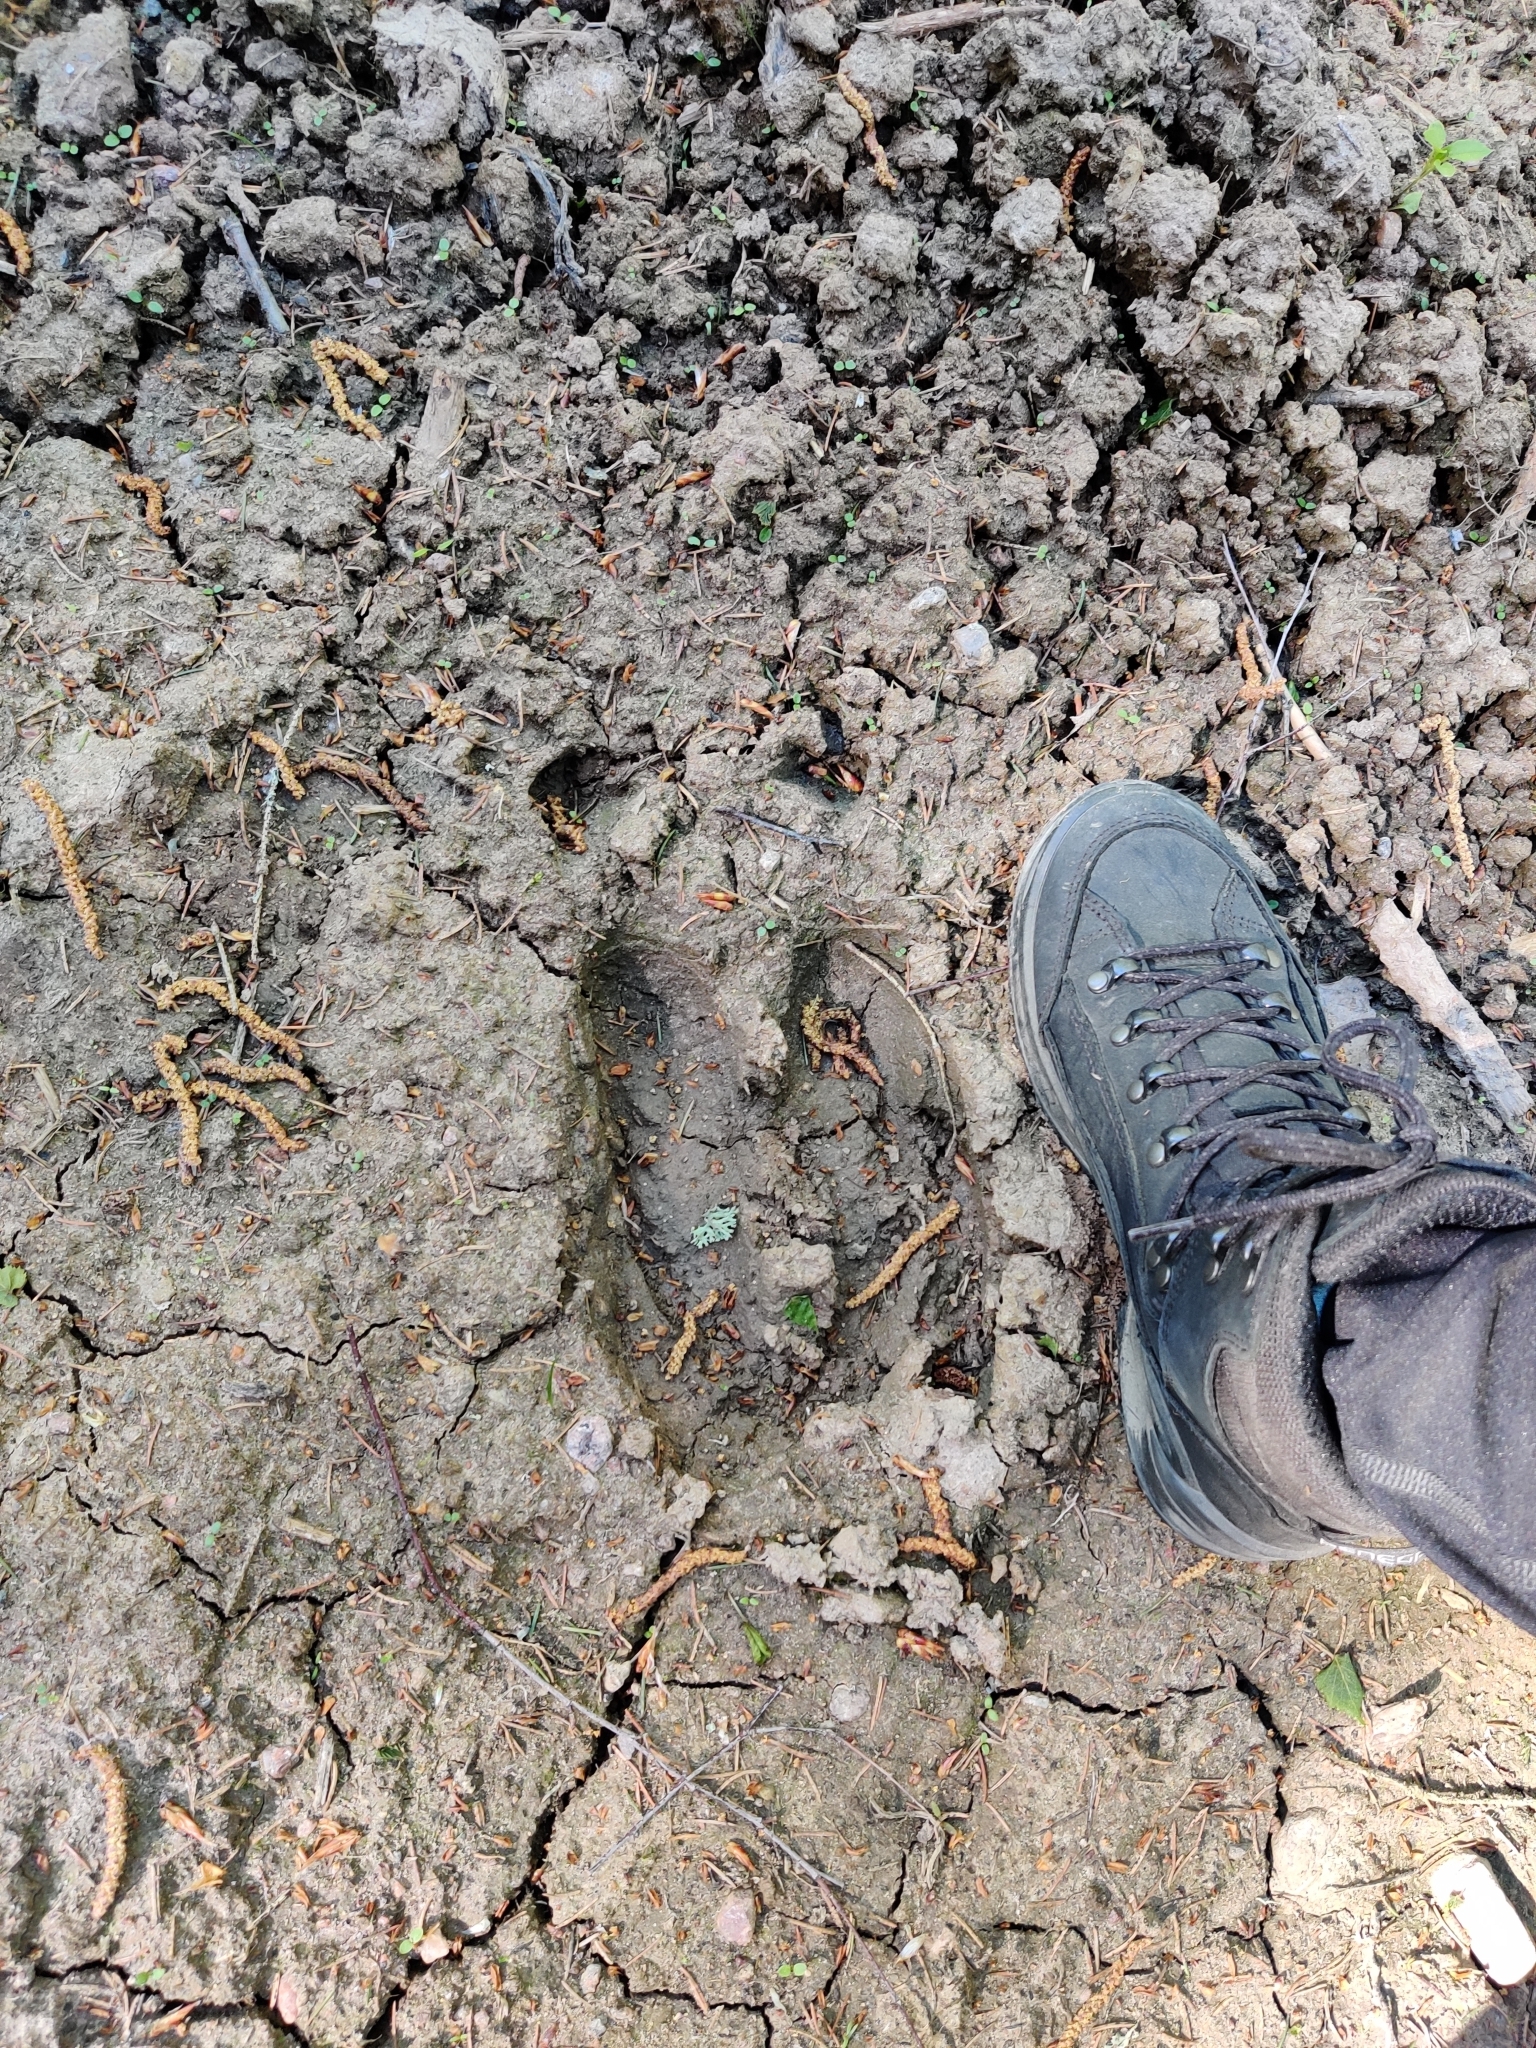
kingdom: Animalia
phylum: Chordata
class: Mammalia
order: Artiodactyla
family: Cervidae
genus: Alces
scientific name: Alces alces
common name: Moose
